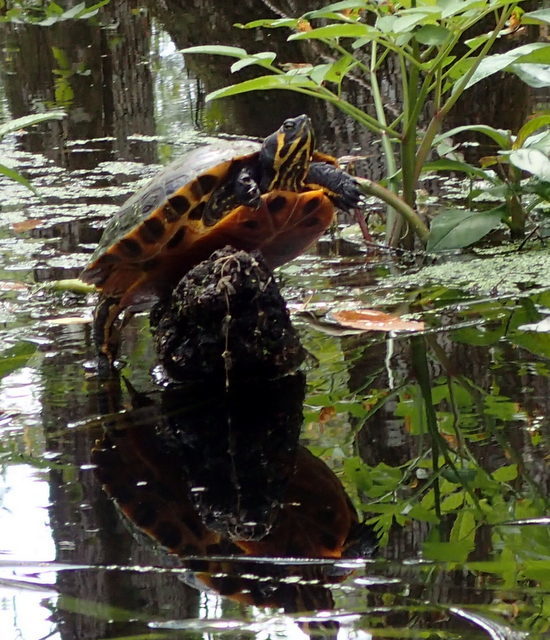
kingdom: Animalia
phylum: Chordata
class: Testudines
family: Emydidae
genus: Trachemys
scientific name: Trachemys scripta
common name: Slider
